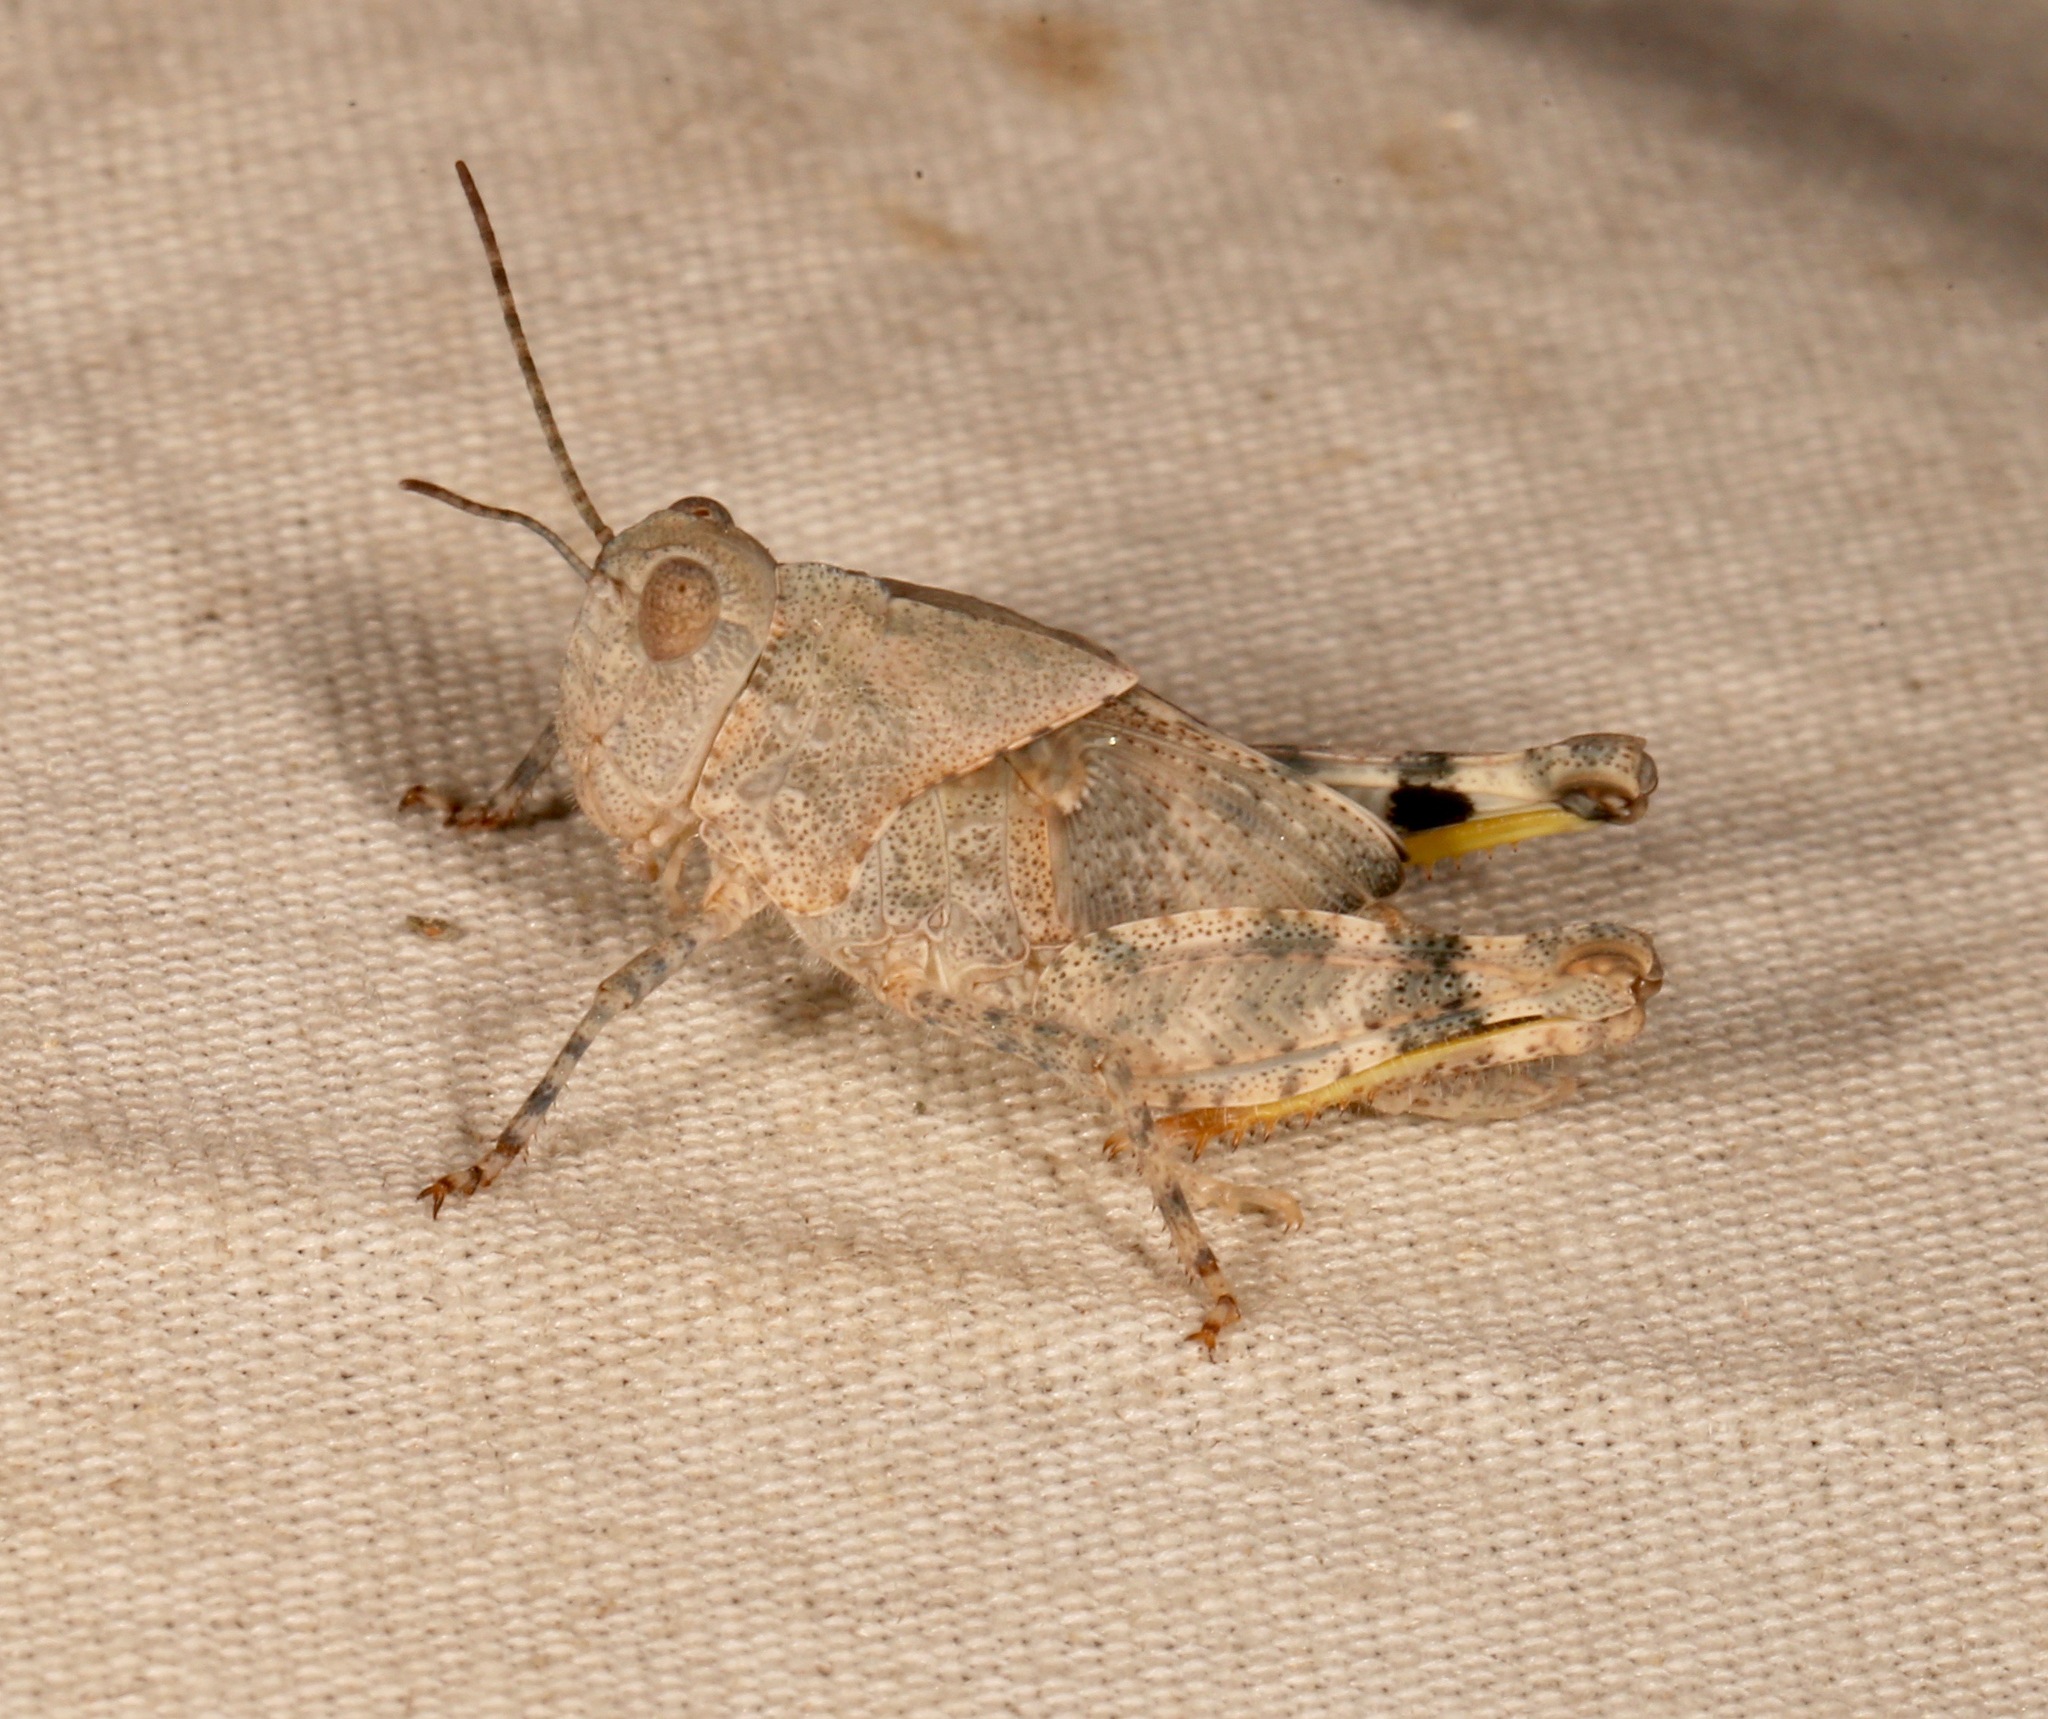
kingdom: Animalia
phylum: Arthropoda
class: Insecta
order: Orthoptera
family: Acrididae
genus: Trimerotropis
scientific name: Trimerotropis pallidipennis
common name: Pallid-winged grasshopper
